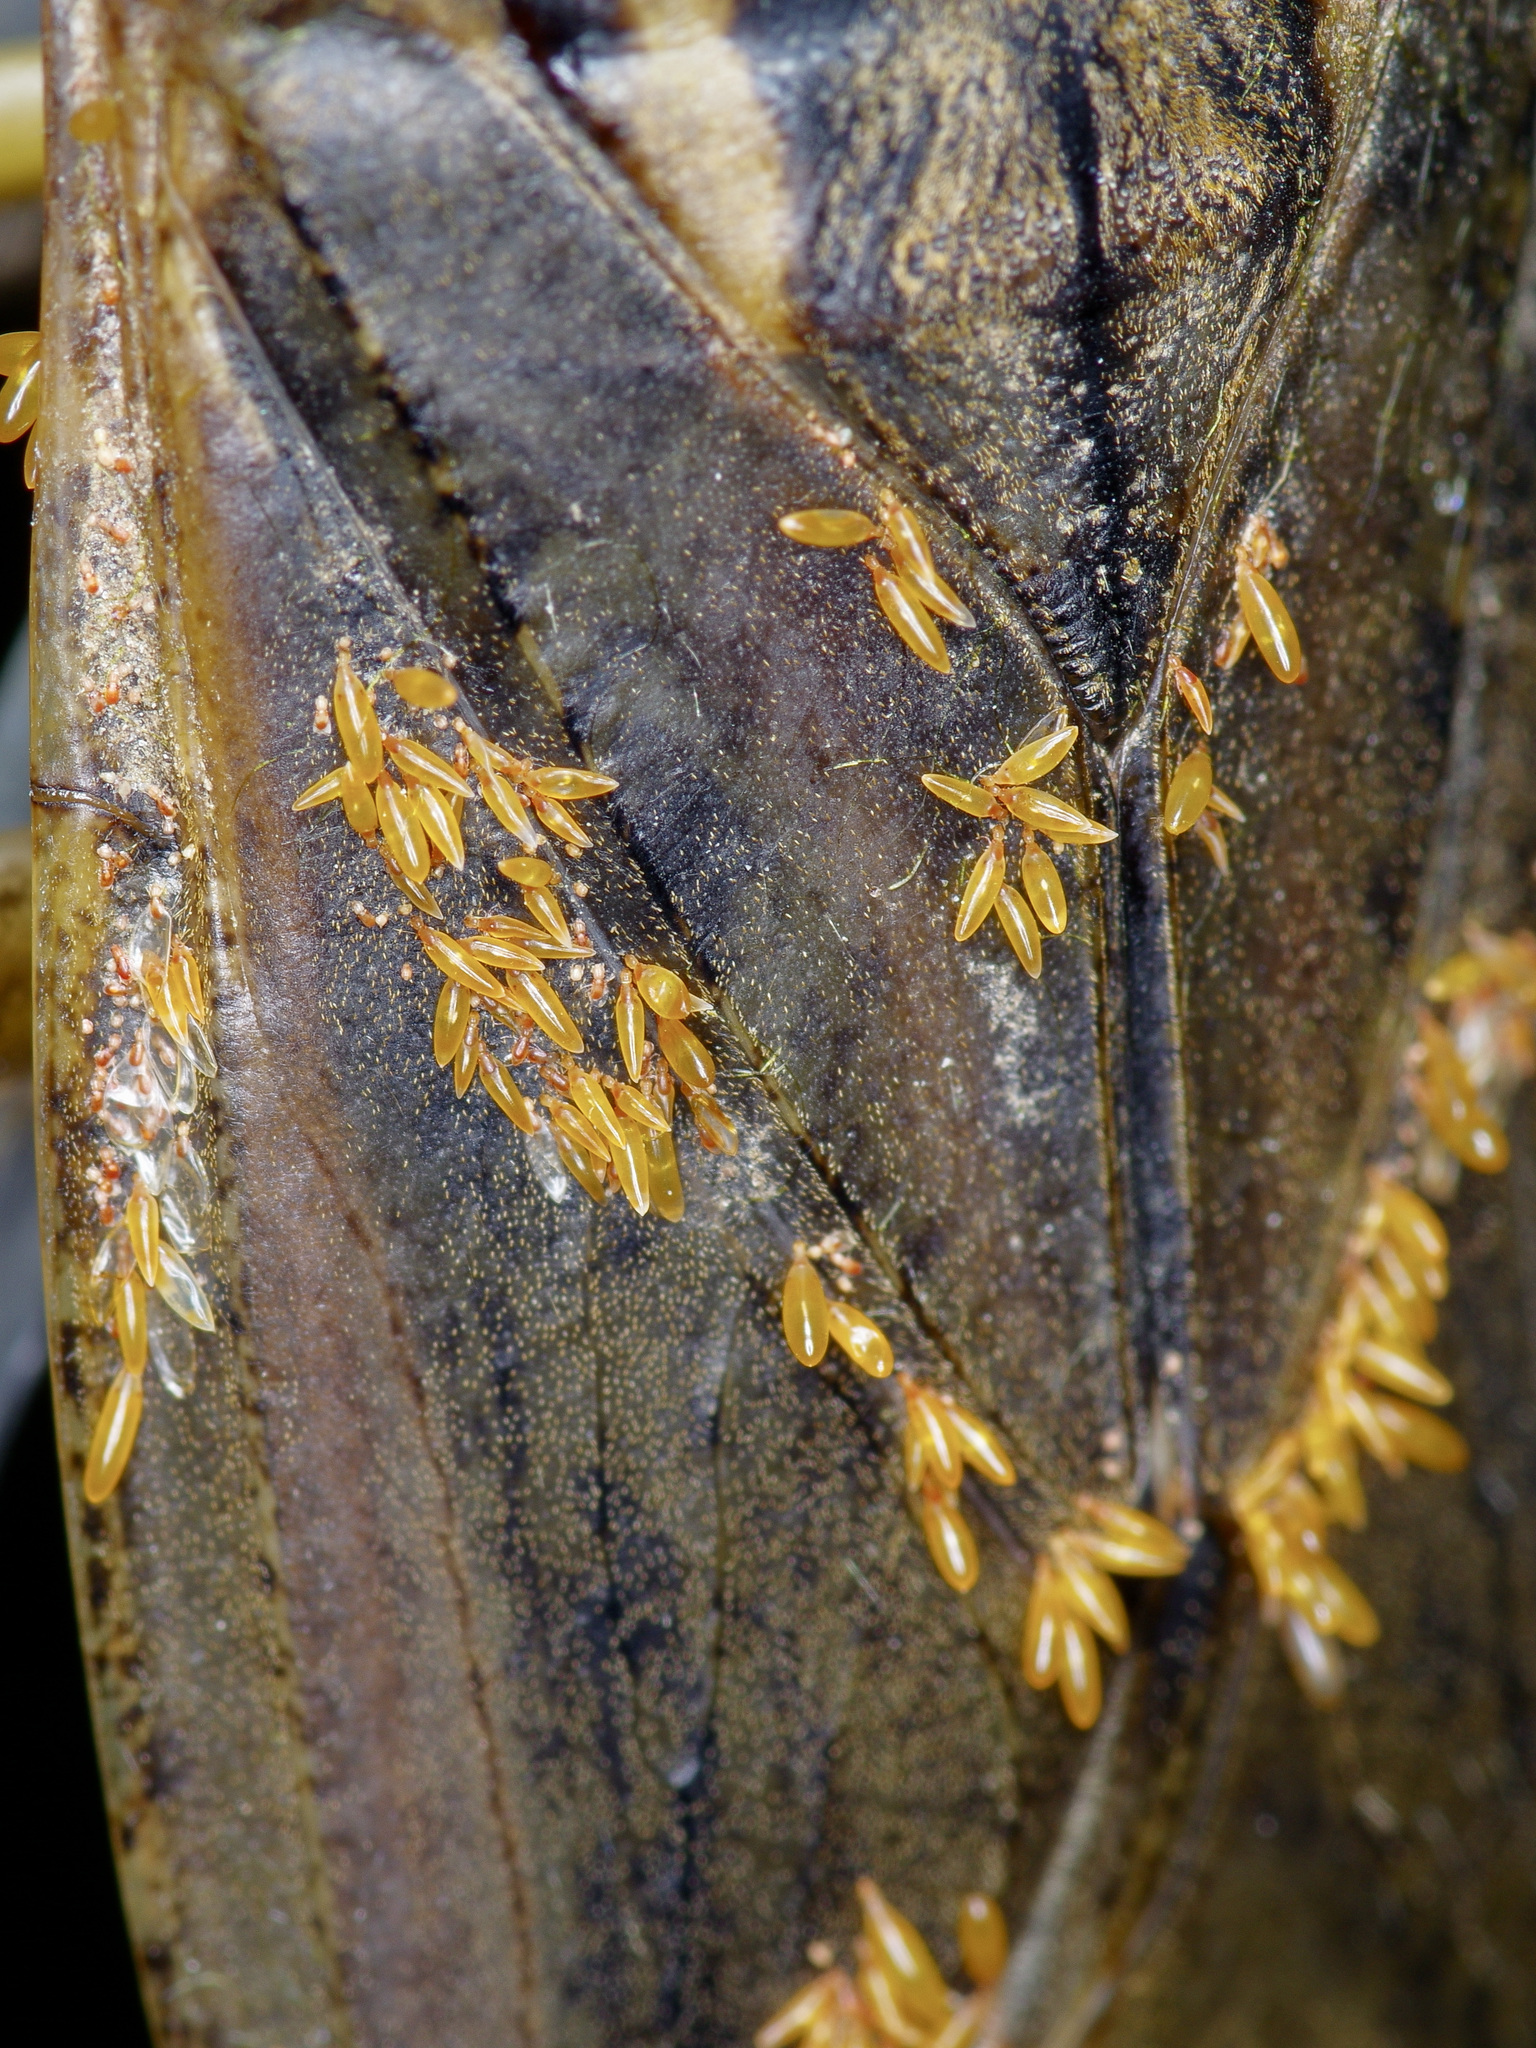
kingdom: Animalia
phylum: Arthropoda
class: Insecta
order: Hemiptera
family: Belostomatidae
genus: Lethocerus
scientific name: Lethocerus uhleri
